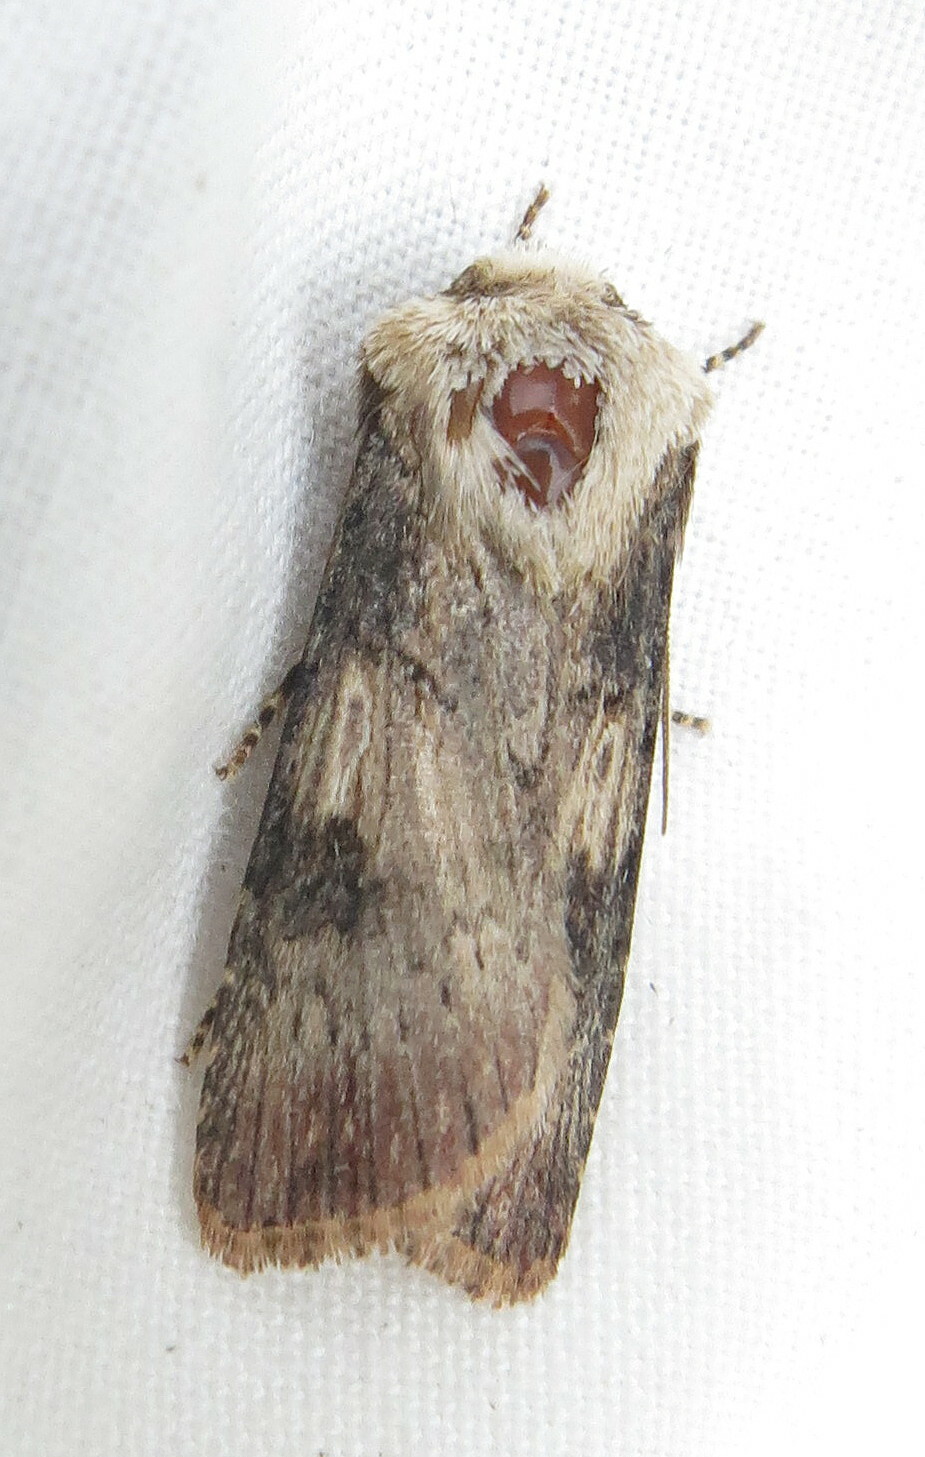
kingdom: Animalia
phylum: Arthropoda
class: Insecta
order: Lepidoptera
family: Noctuidae
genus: Agrotis
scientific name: Agrotis puta
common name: Shuttle-shaped dart
